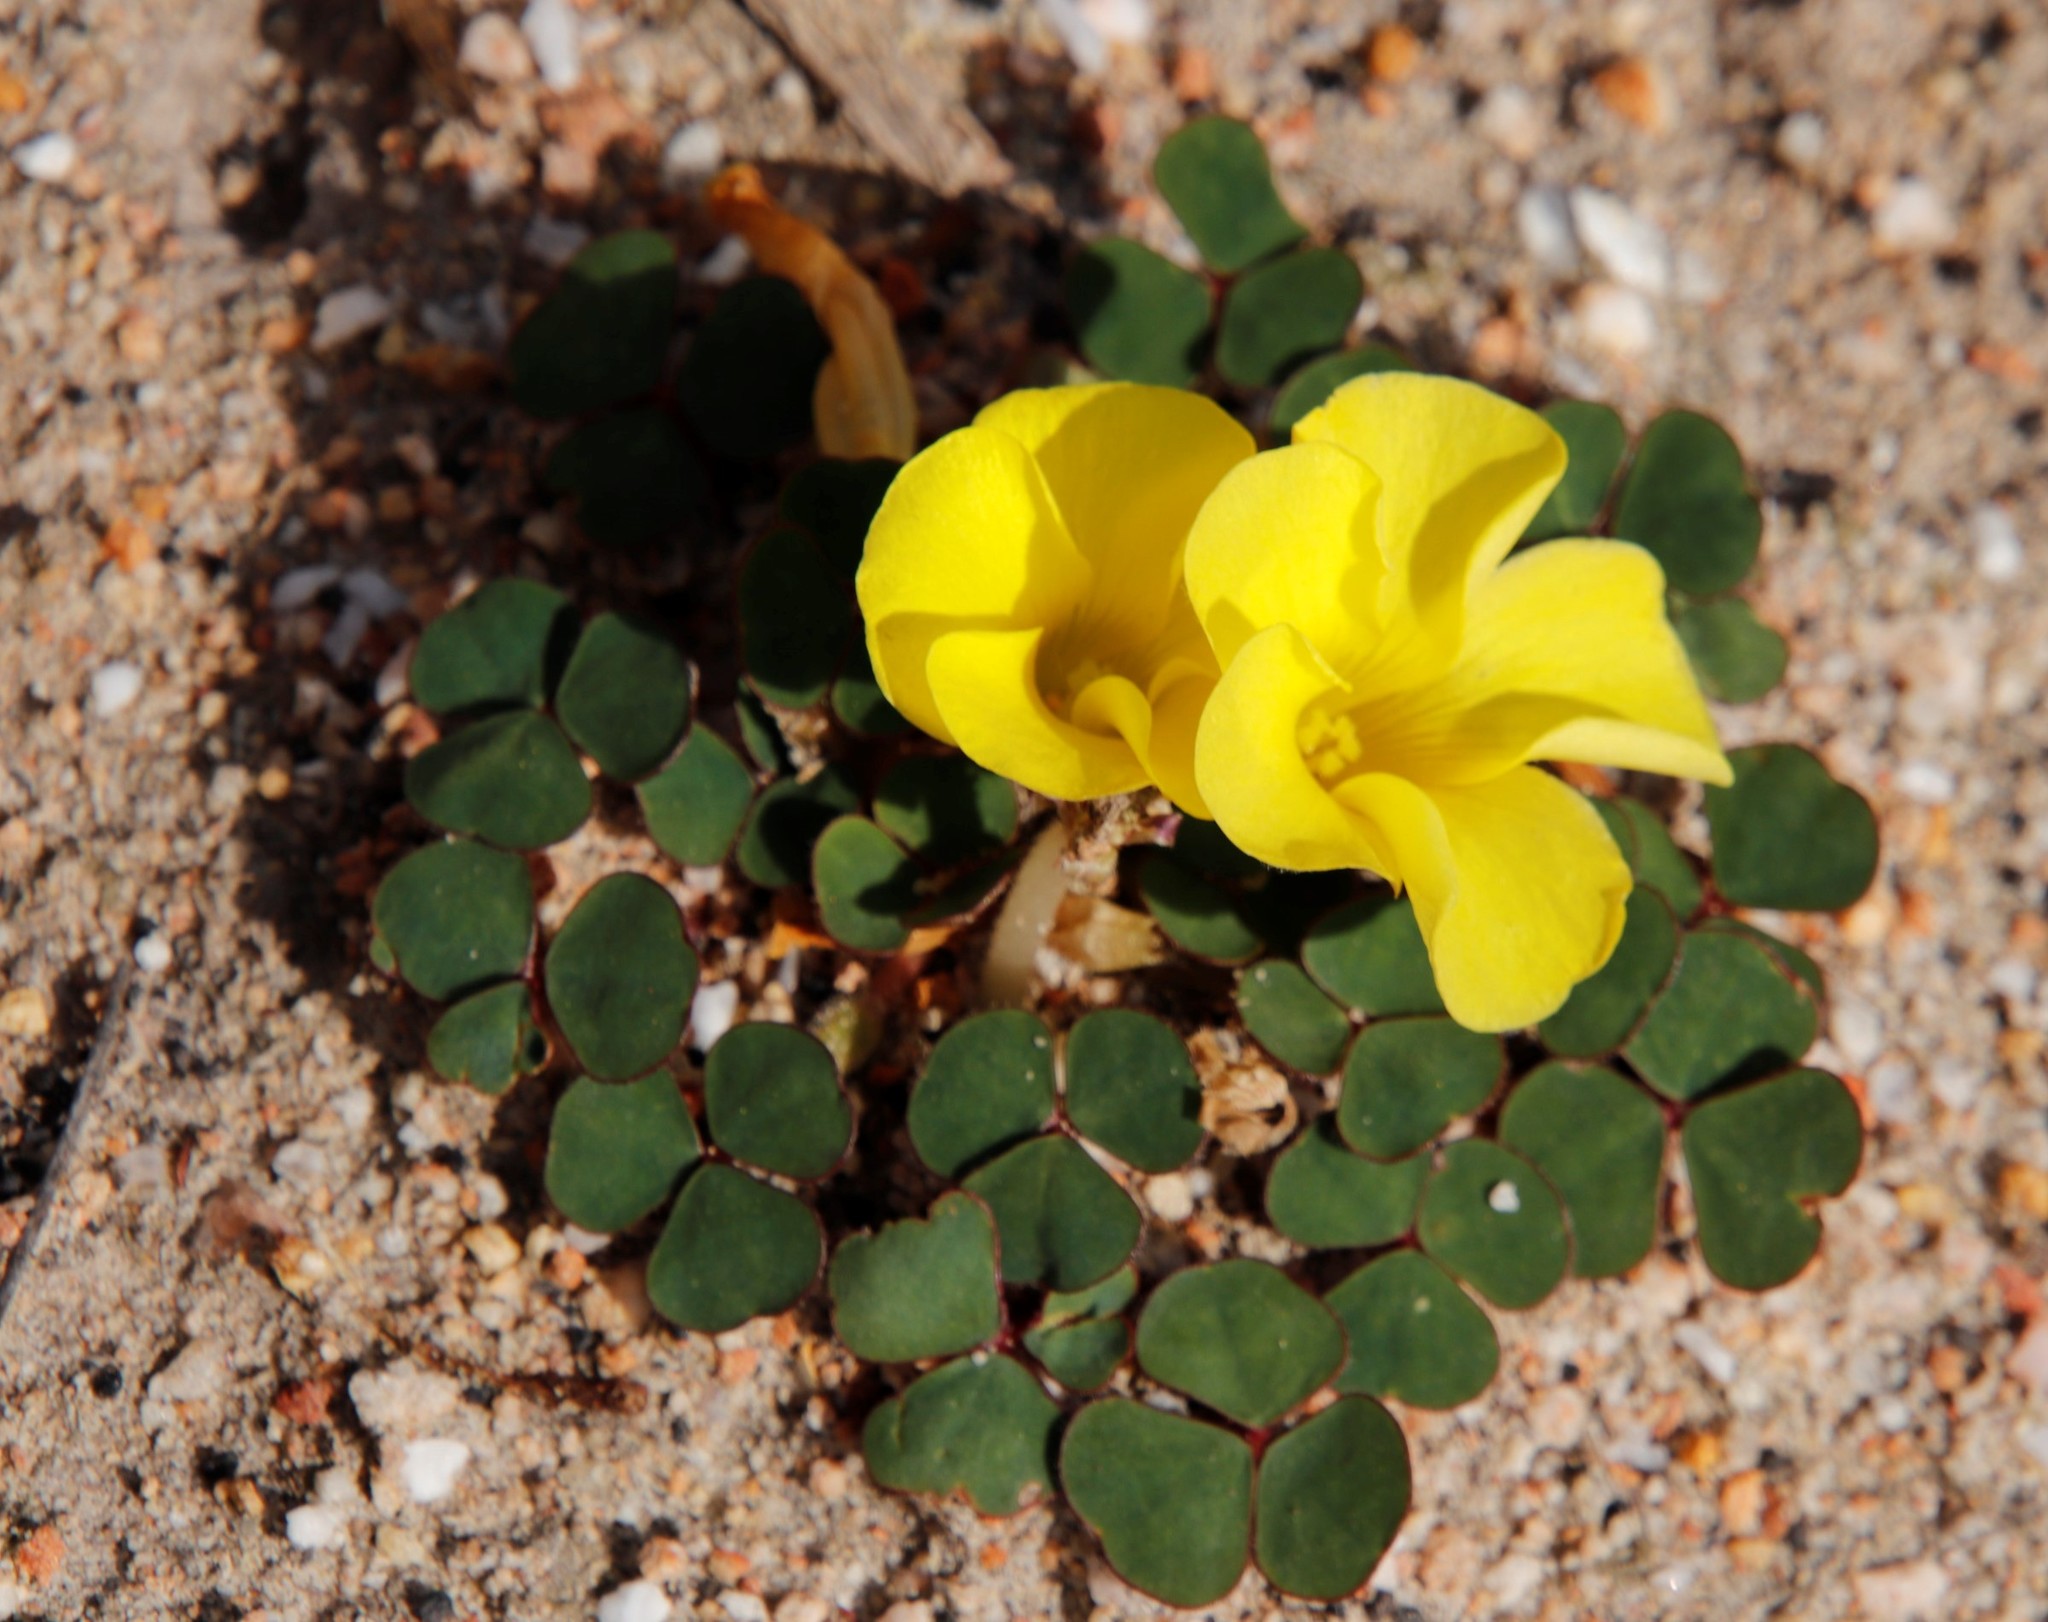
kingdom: Plantae
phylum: Tracheophyta
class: Magnoliopsida
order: Oxalidales
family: Oxalidaceae
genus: Oxalis
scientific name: Oxalis luteola
